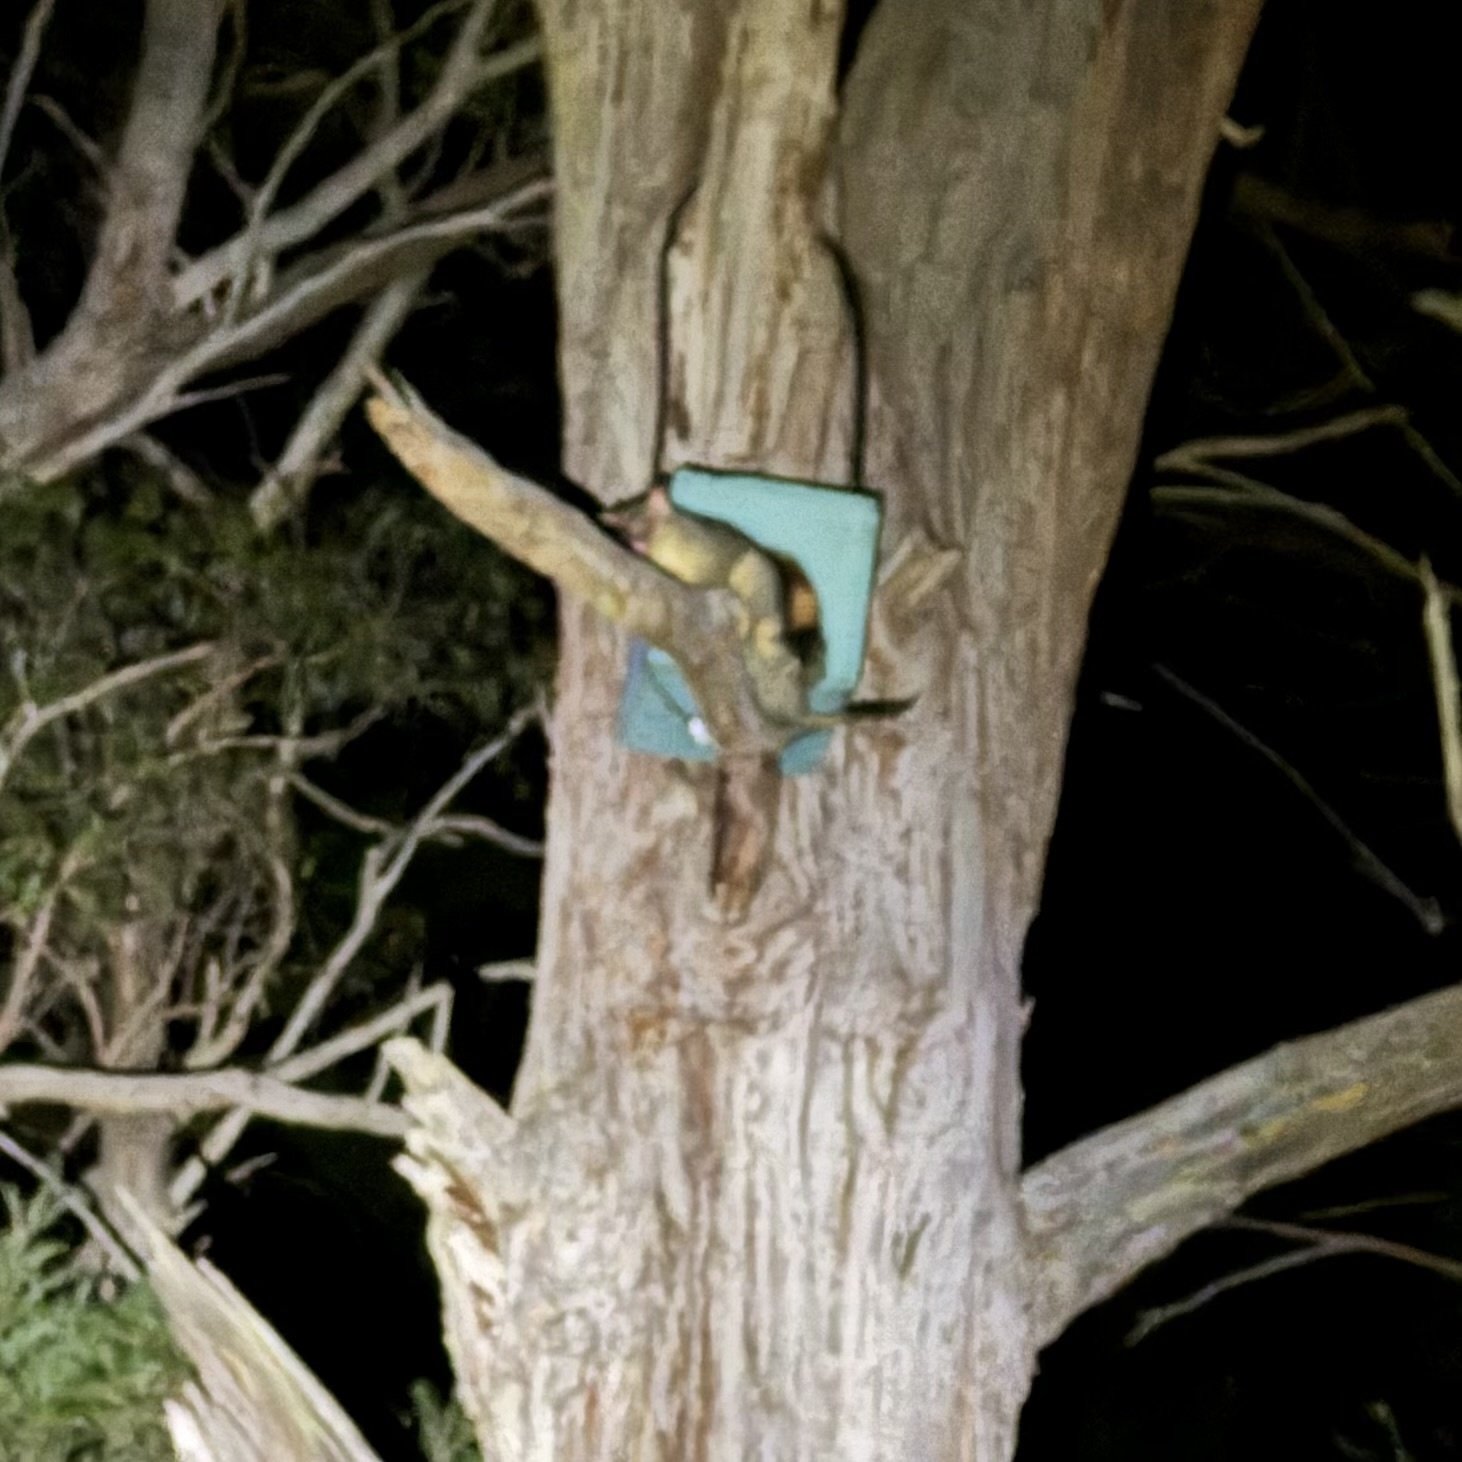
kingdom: Animalia
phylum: Chordata
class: Mammalia
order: Diprotodontia
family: Phalangeridae
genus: Trichosurus
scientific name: Trichosurus vulpecula
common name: Common brushtail
